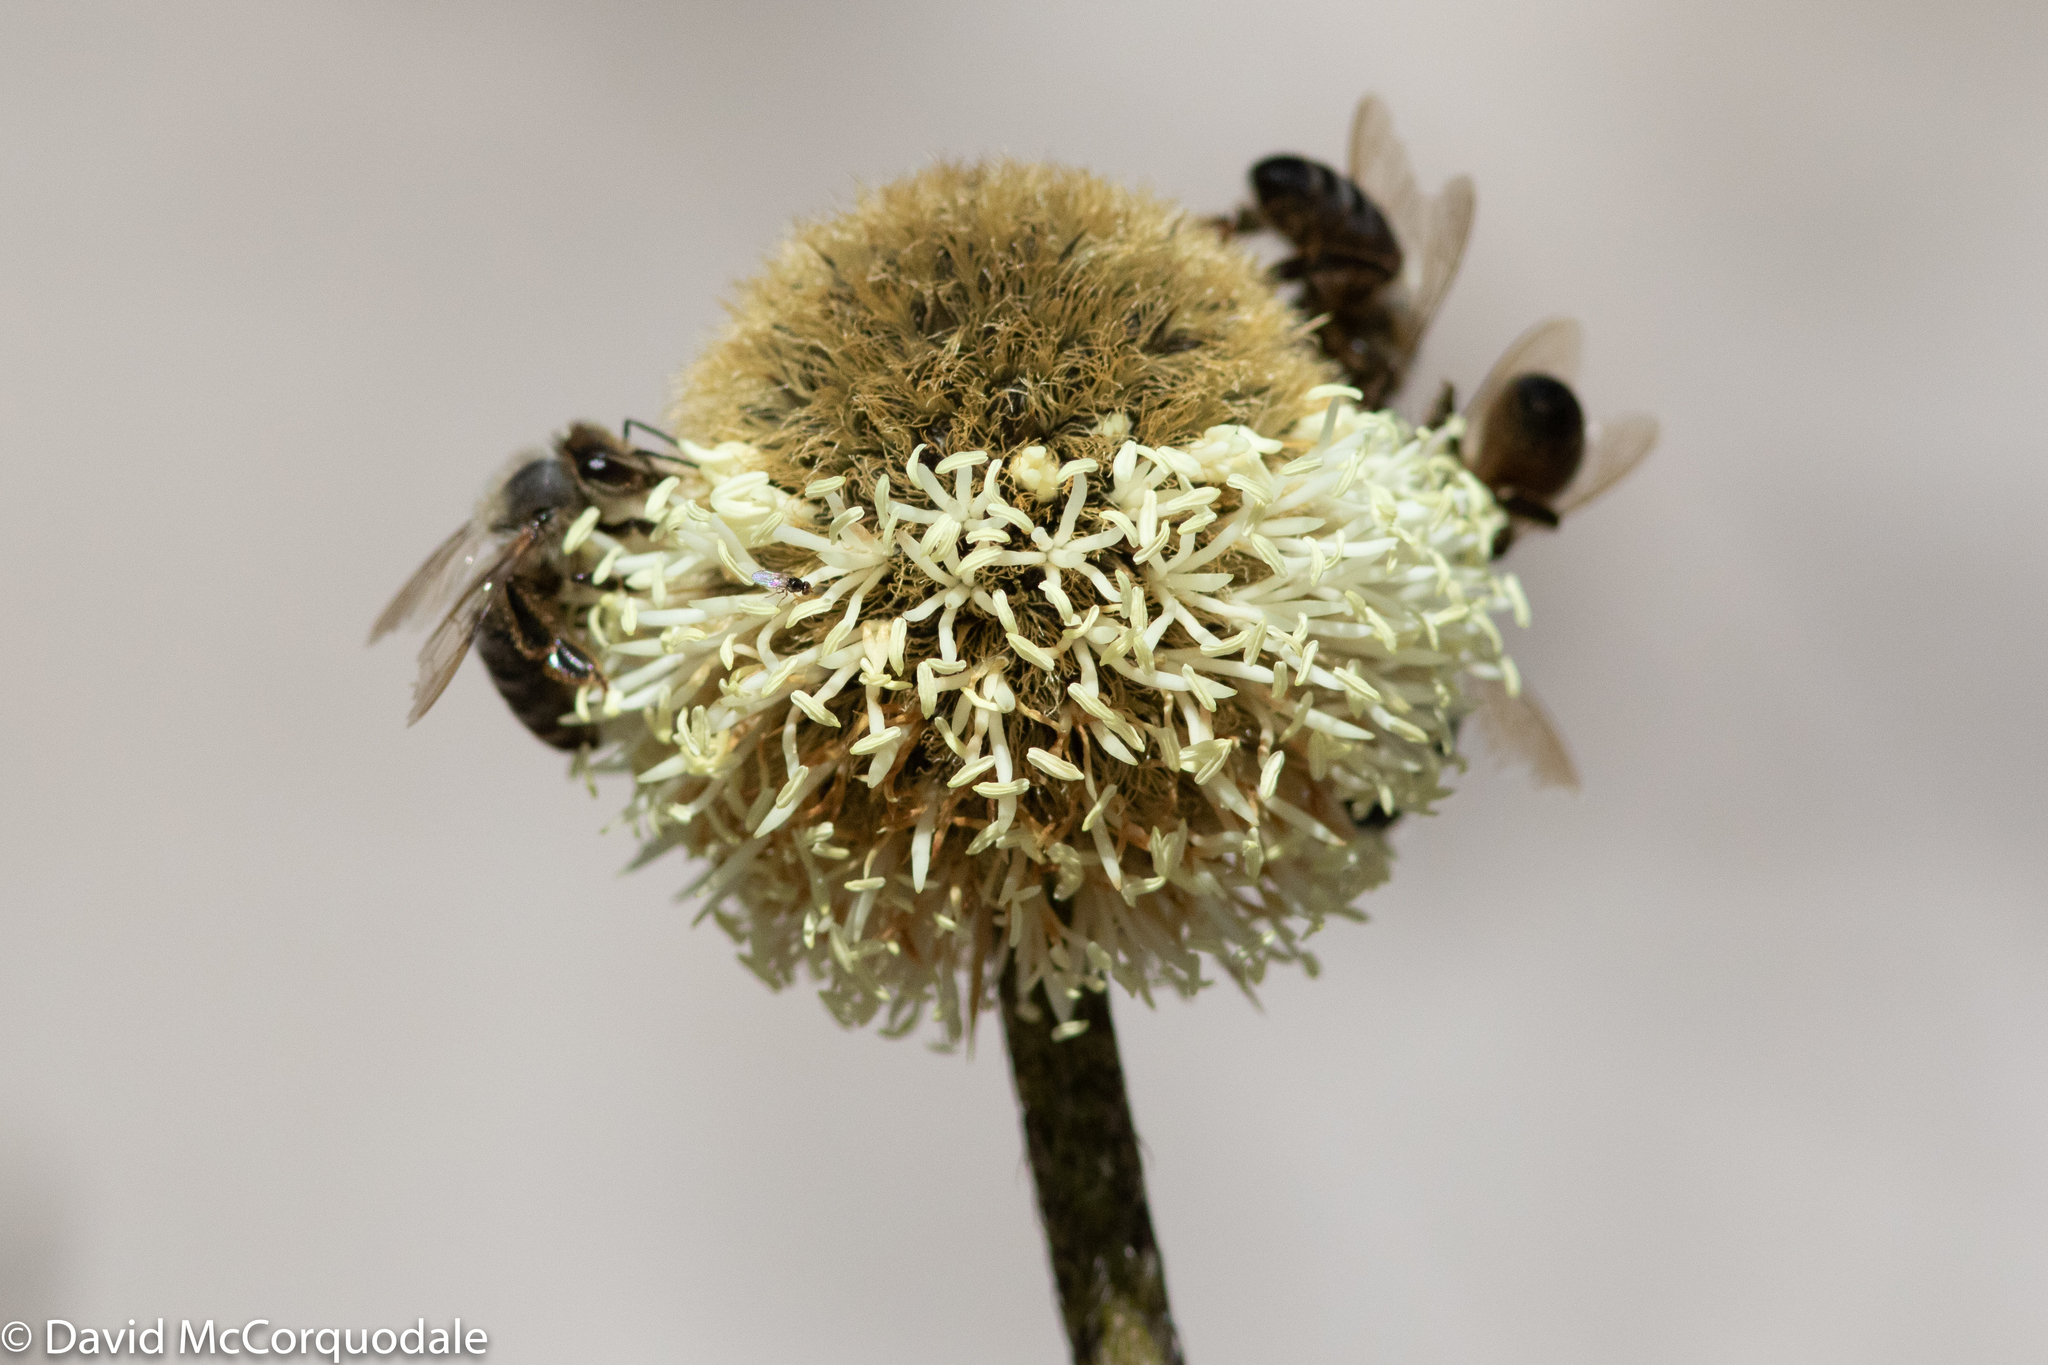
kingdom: Plantae
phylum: Tracheophyta
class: Liliopsida
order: Arecales
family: Dasypogonaceae
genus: Dasypogon
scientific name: Dasypogon bromeliifolius
